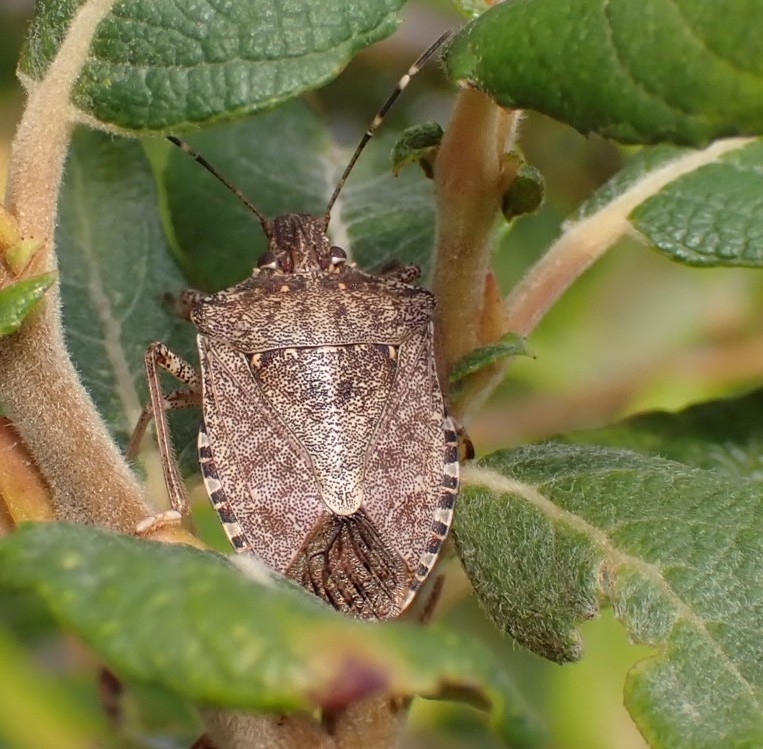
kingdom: Animalia
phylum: Arthropoda
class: Insecta
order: Hemiptera
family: Pentatomidae
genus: Halyomorpha
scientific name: Halyomorpha halys
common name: Brown marmorated stink bug
